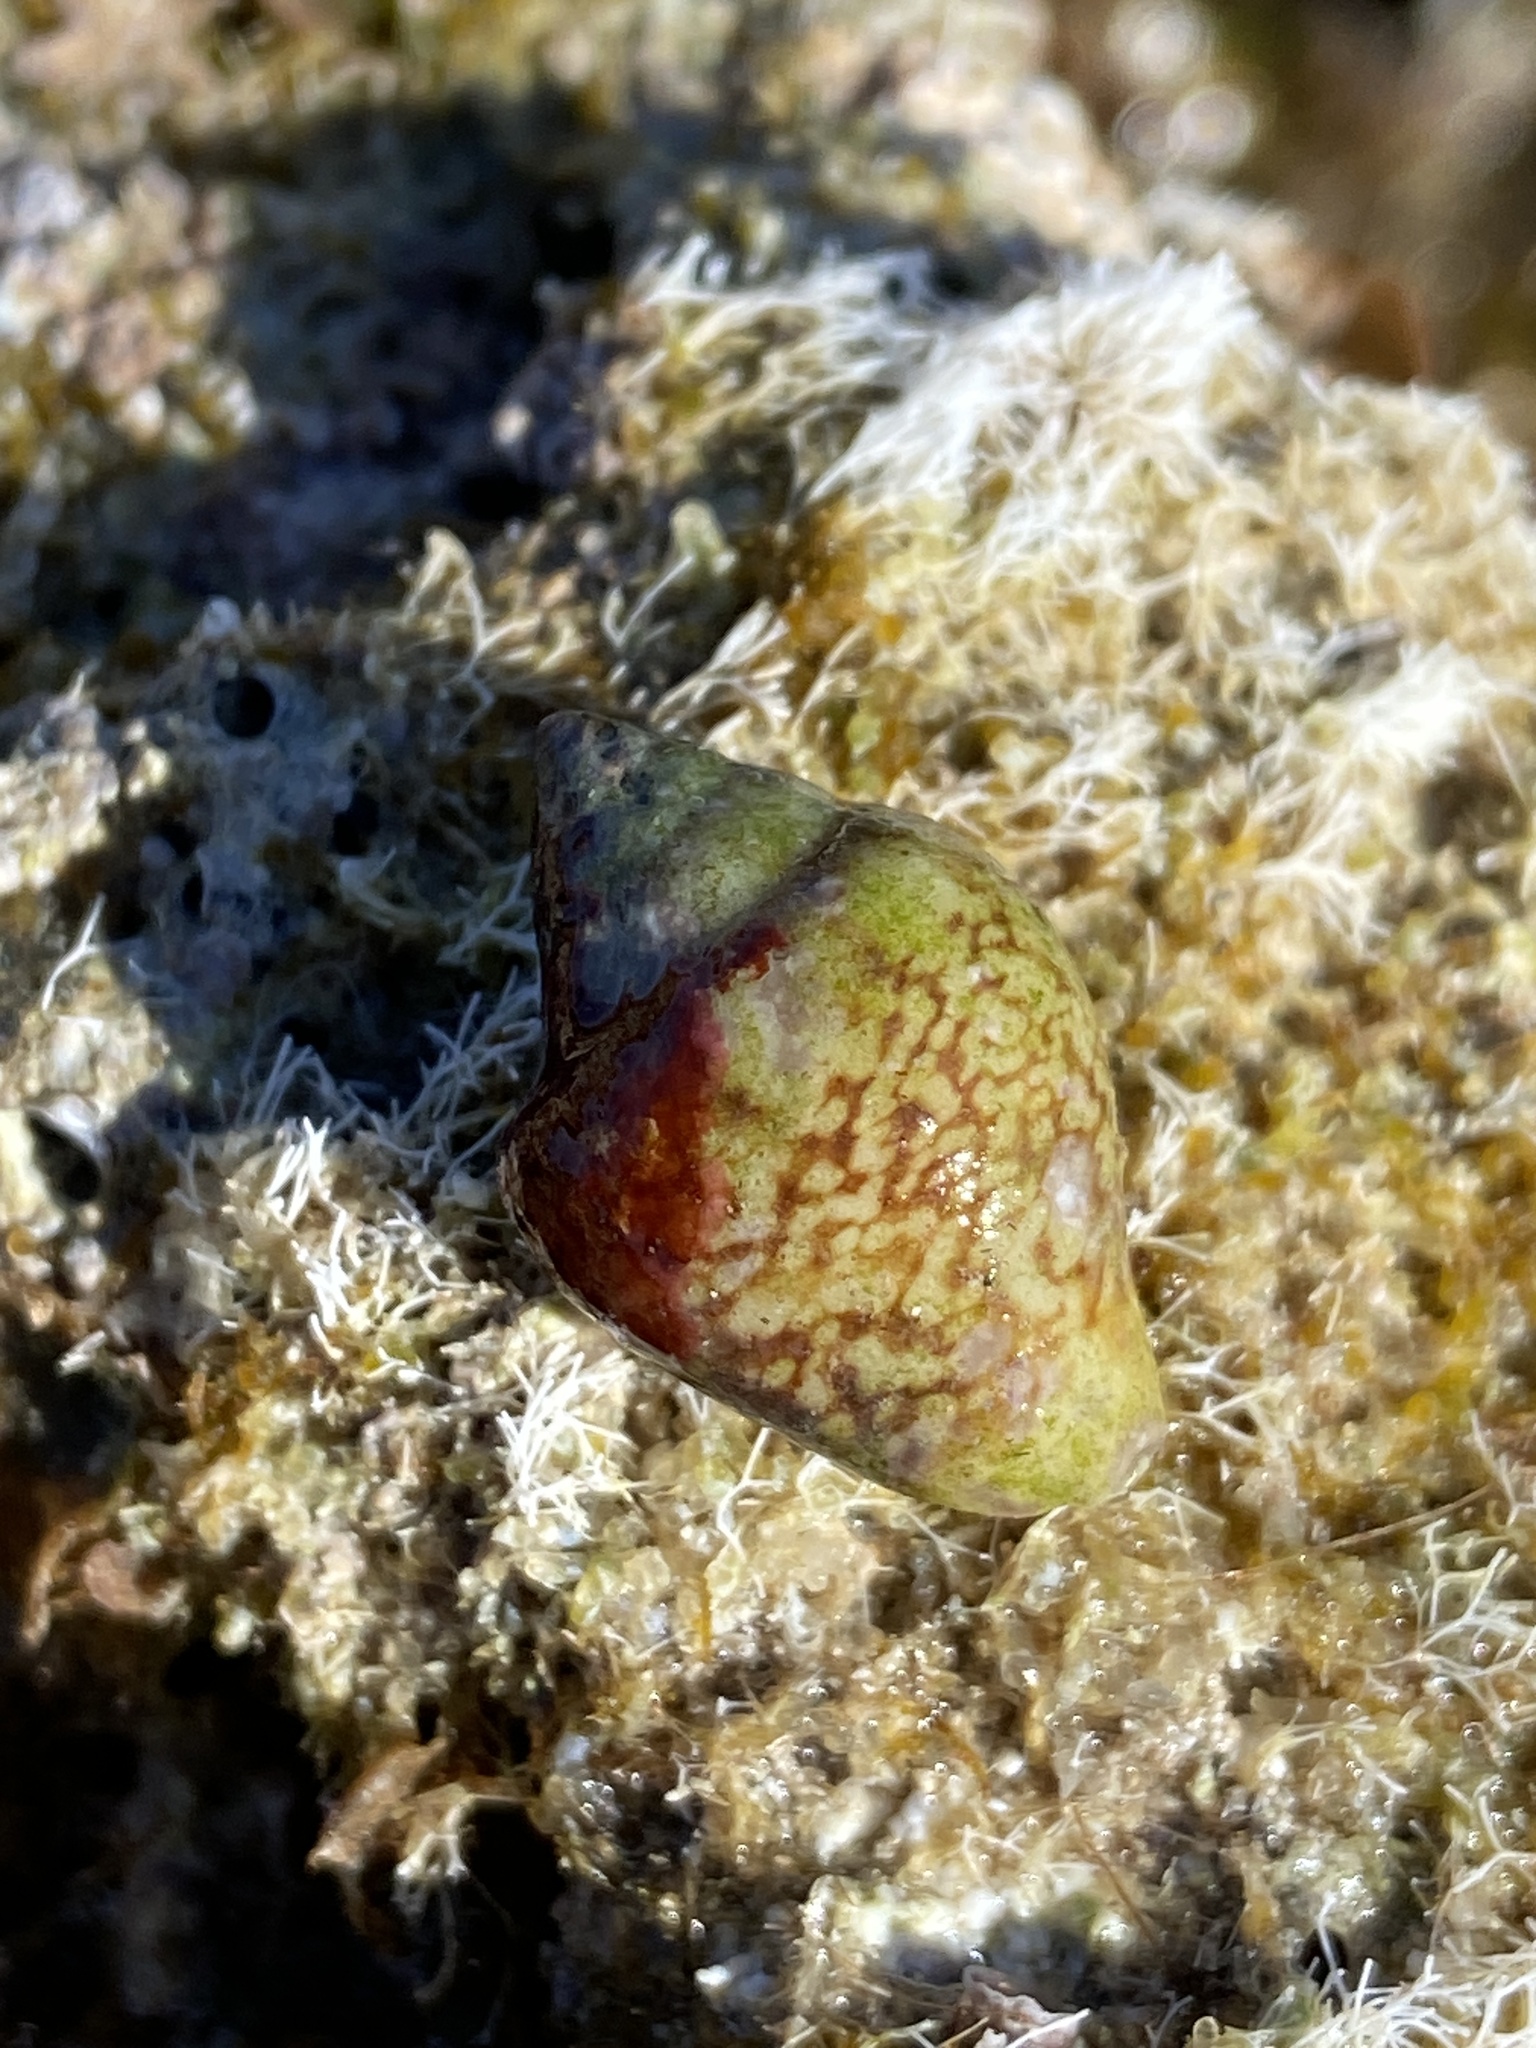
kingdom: Animalia
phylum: Mollusca
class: Gastropoda
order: Neogastropoda
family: Columbellidae
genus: Columbella
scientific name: Columbella rustica
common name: Rustic dove shell
